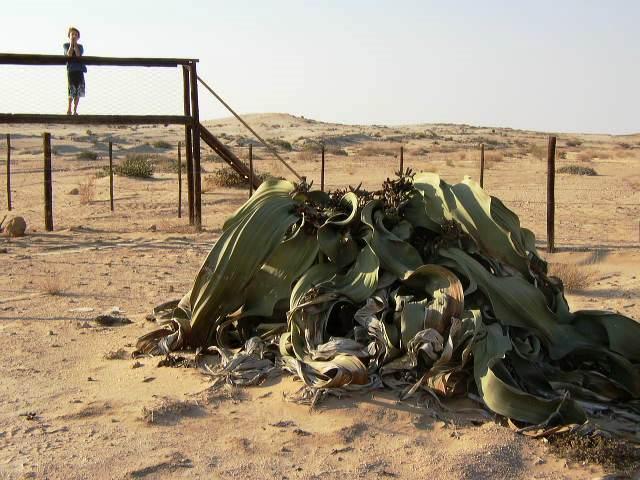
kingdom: Plantae
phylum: Tracheophyta
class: Gnetopsida
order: Welwitschiales
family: Welwitschiaceae
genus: Welwitschia
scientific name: Welwitschia mirabilis
